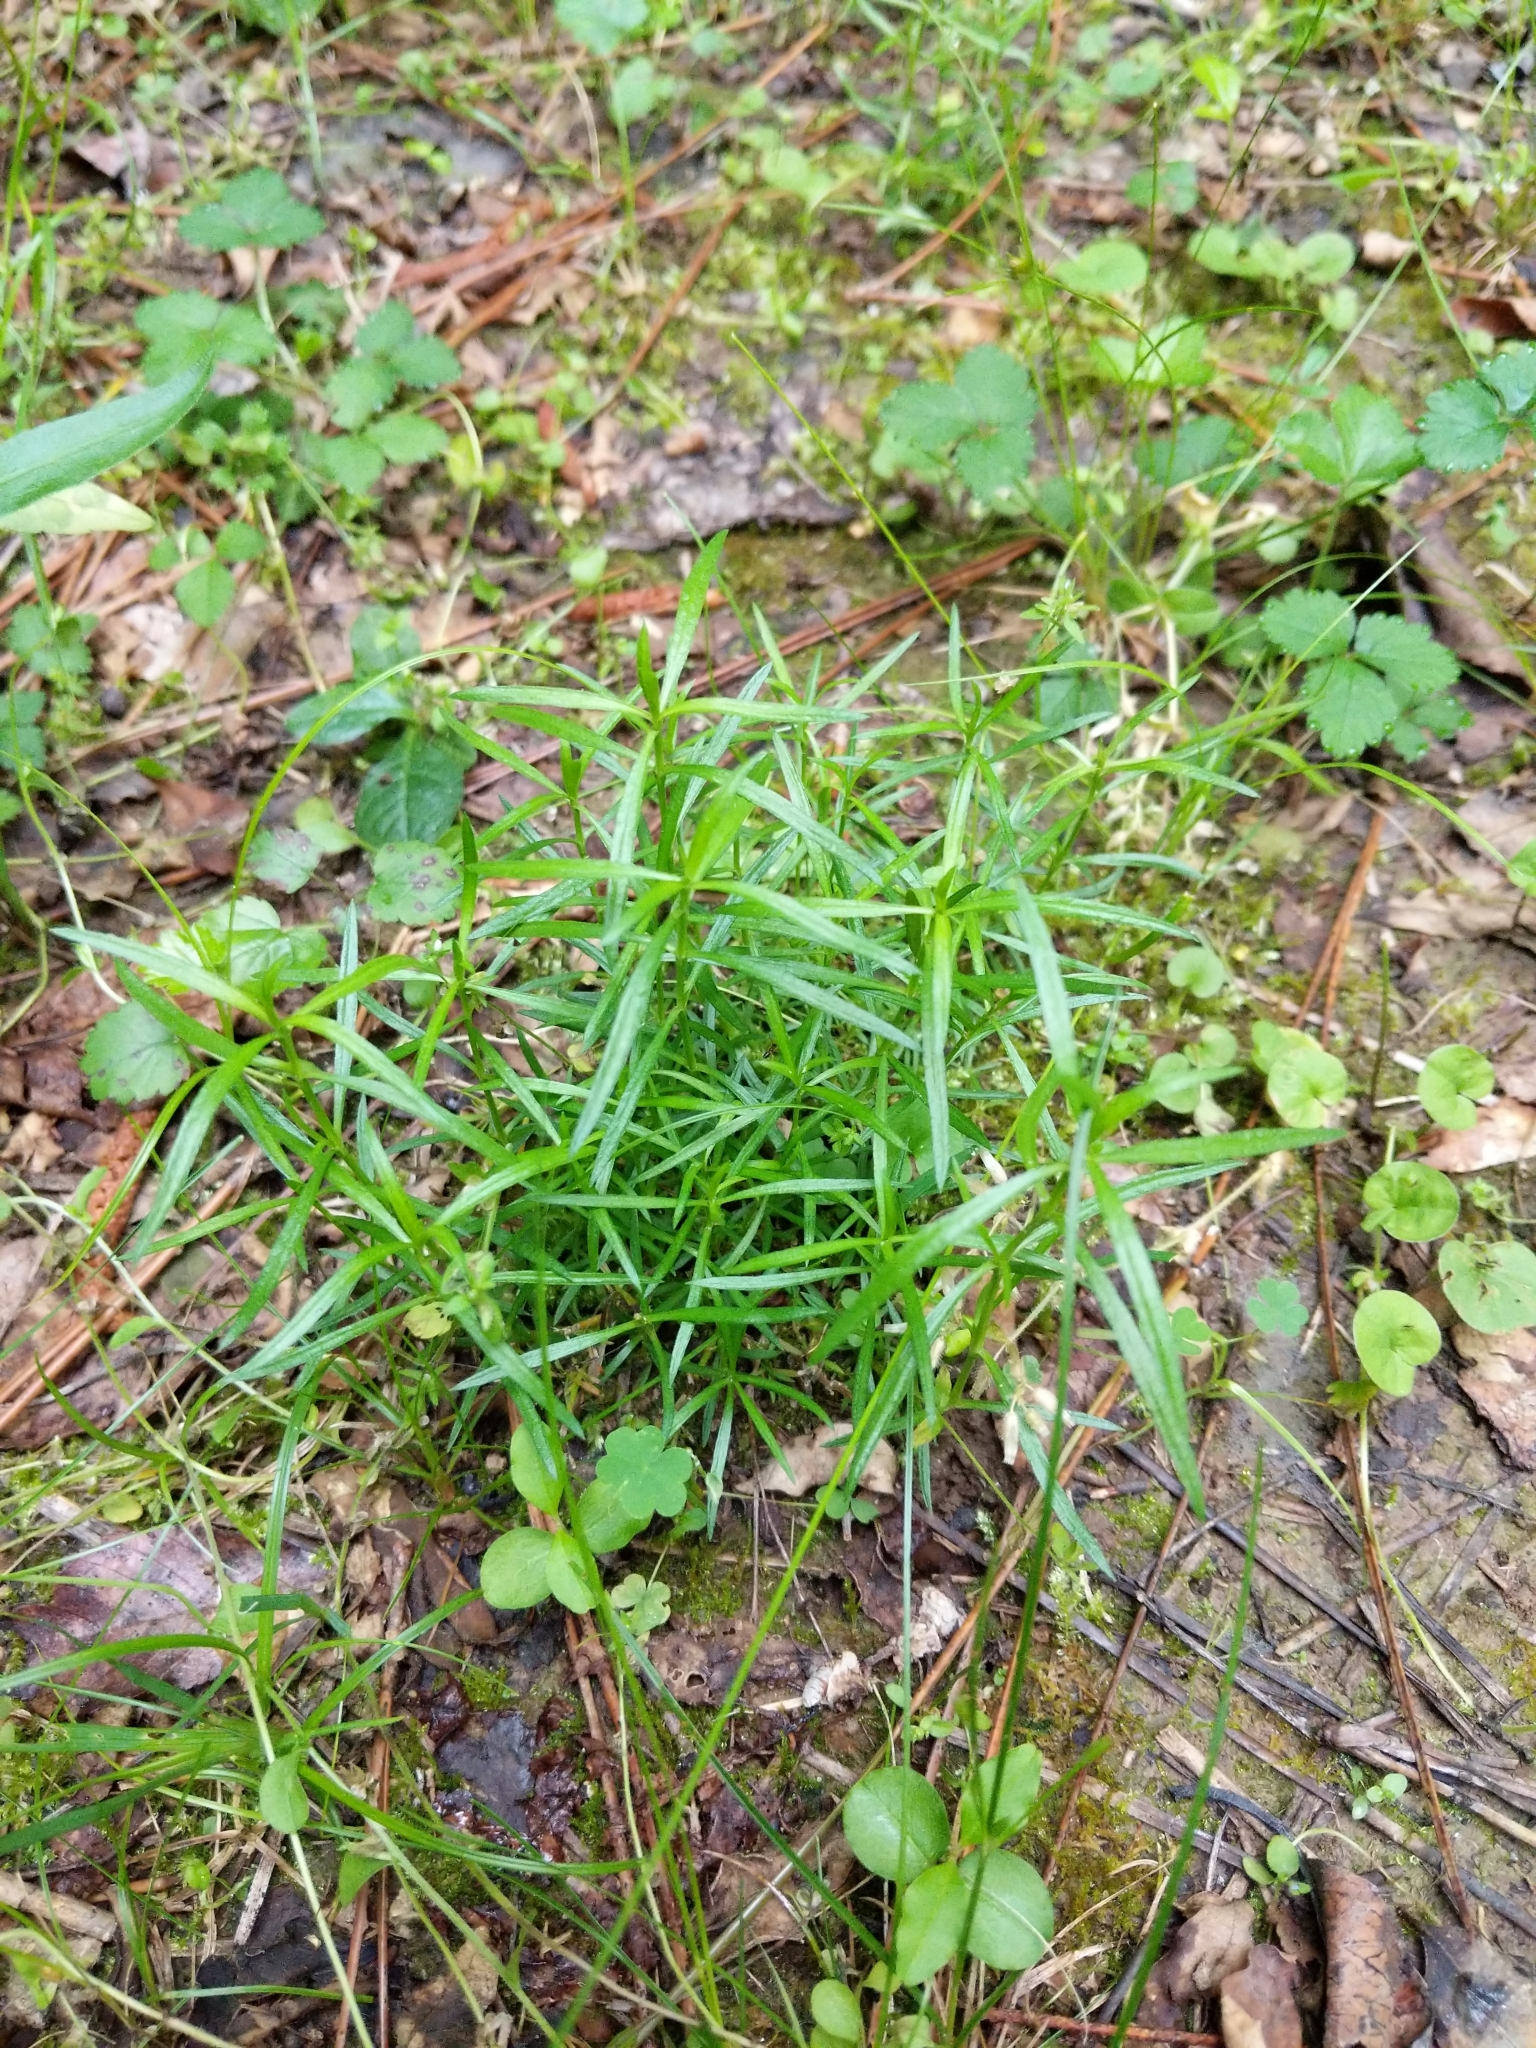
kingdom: Plantae
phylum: Tracheophyta
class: Liliopsida
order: Poales
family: Cyperaceae
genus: Dulichium
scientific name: Dulichium arundinaceum
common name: Three-way sedge
